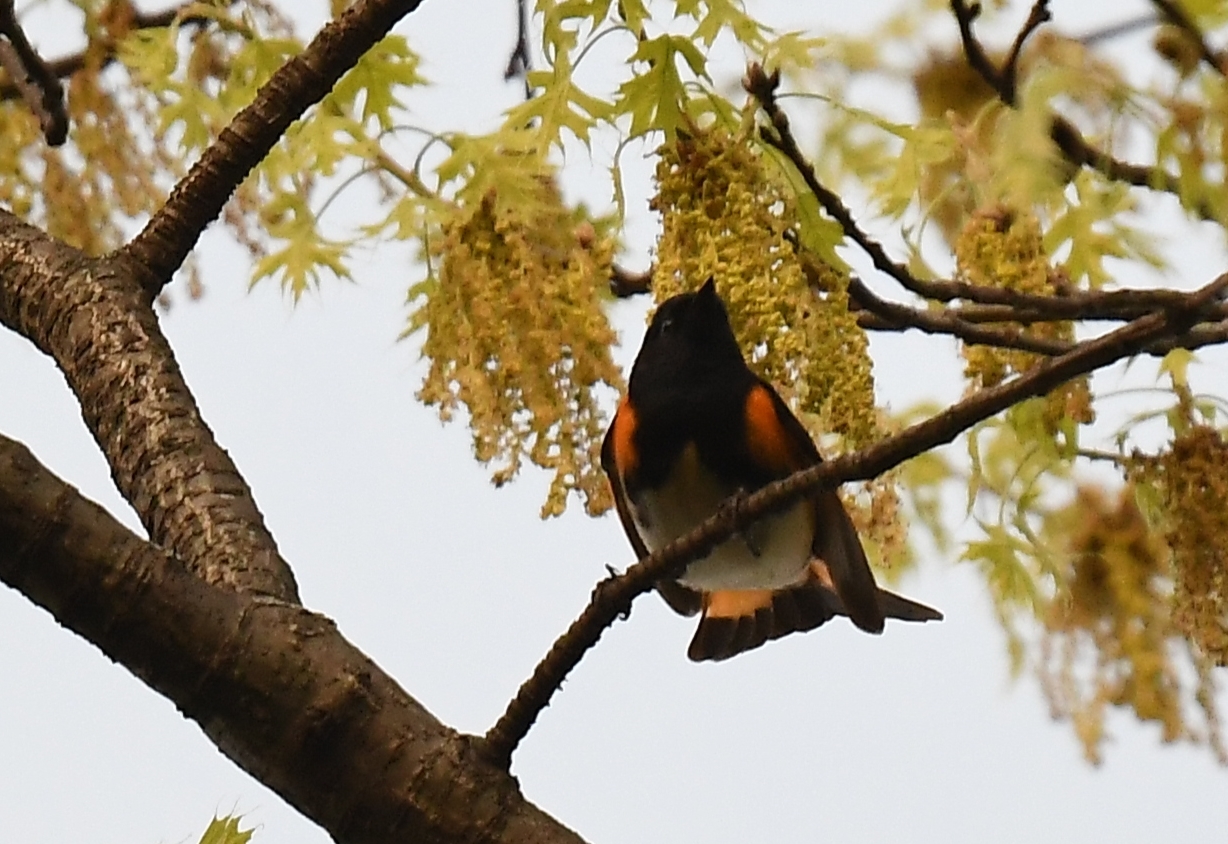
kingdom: Animalia
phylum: Chordata
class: Aves
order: Passeriformes
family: Parulidae
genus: Setophaga
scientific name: Setophaga ruticilla
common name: American redstart
